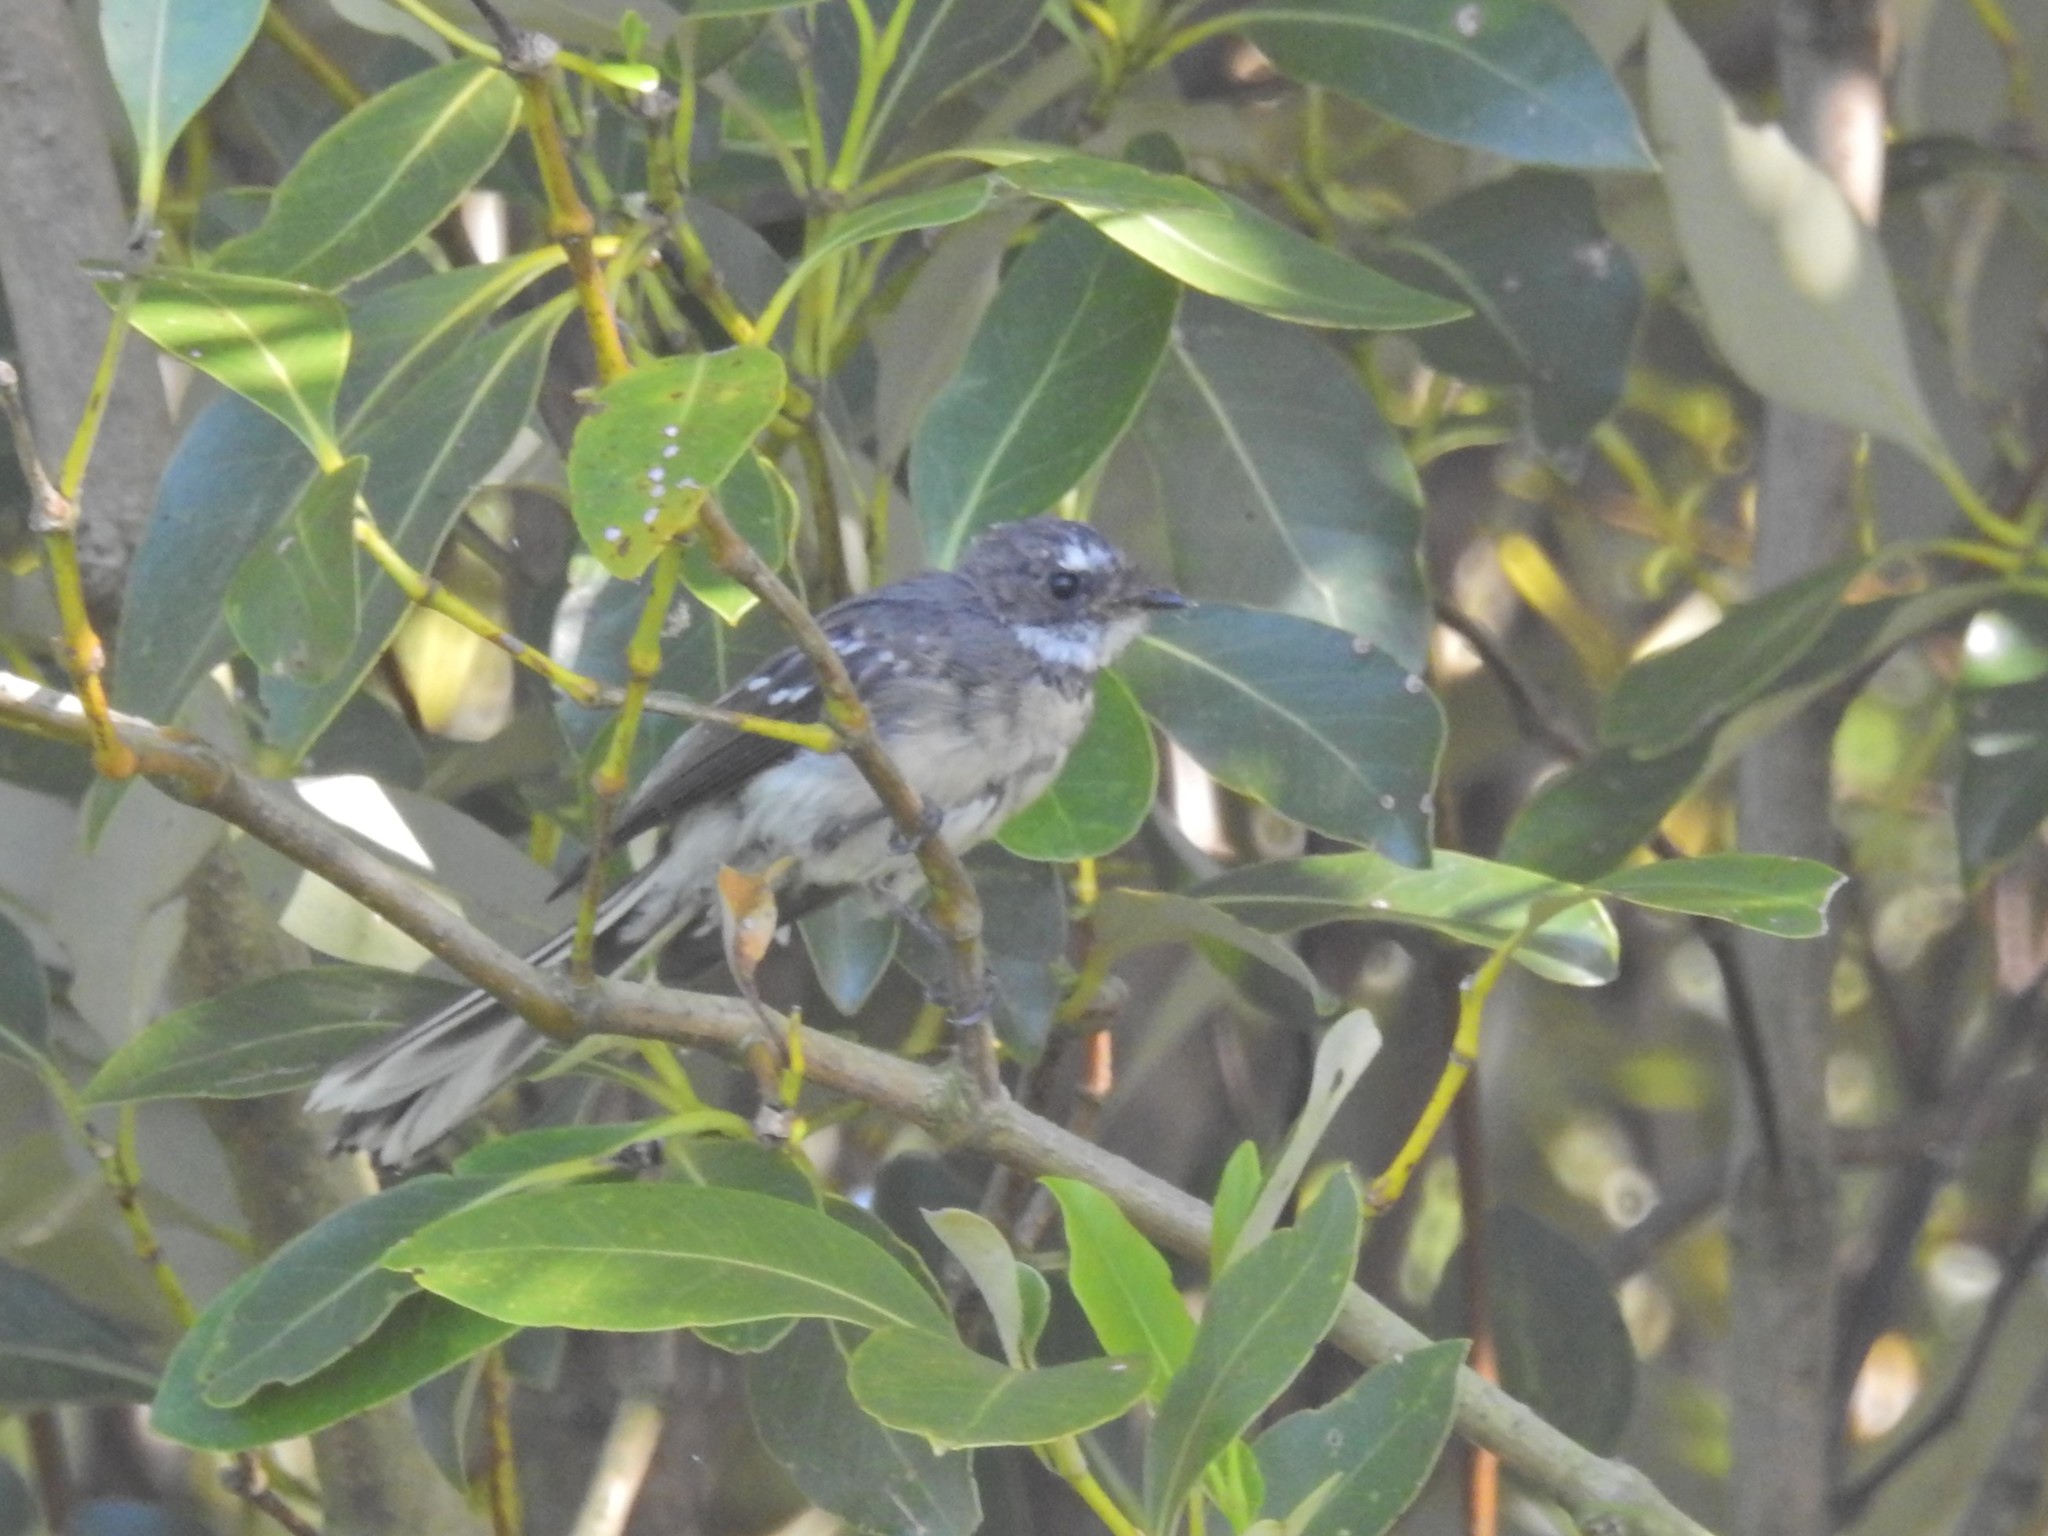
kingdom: Animalia
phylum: Chordata
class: Aves
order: Passeriformes
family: Rhipiduridae
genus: Rhipidura
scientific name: Rhipidura albiscapa
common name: Grey fantail
